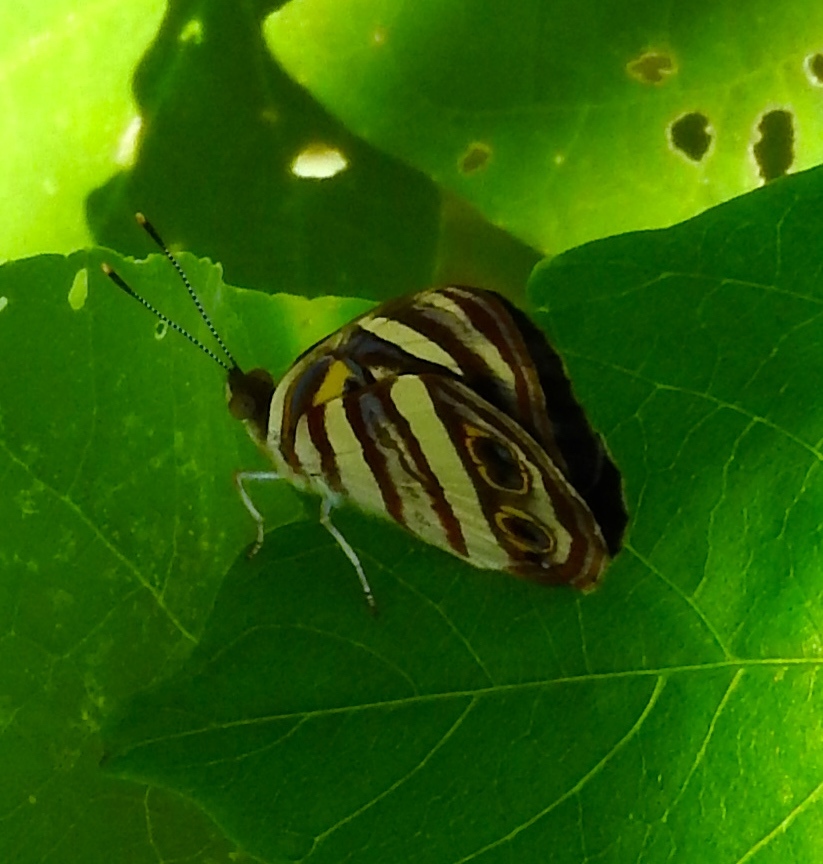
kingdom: Animalia
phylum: Arthropoda
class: Insecta
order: Lepidoptera
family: Nymphalidae
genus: Dynamine
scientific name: Dynamine mylitta
